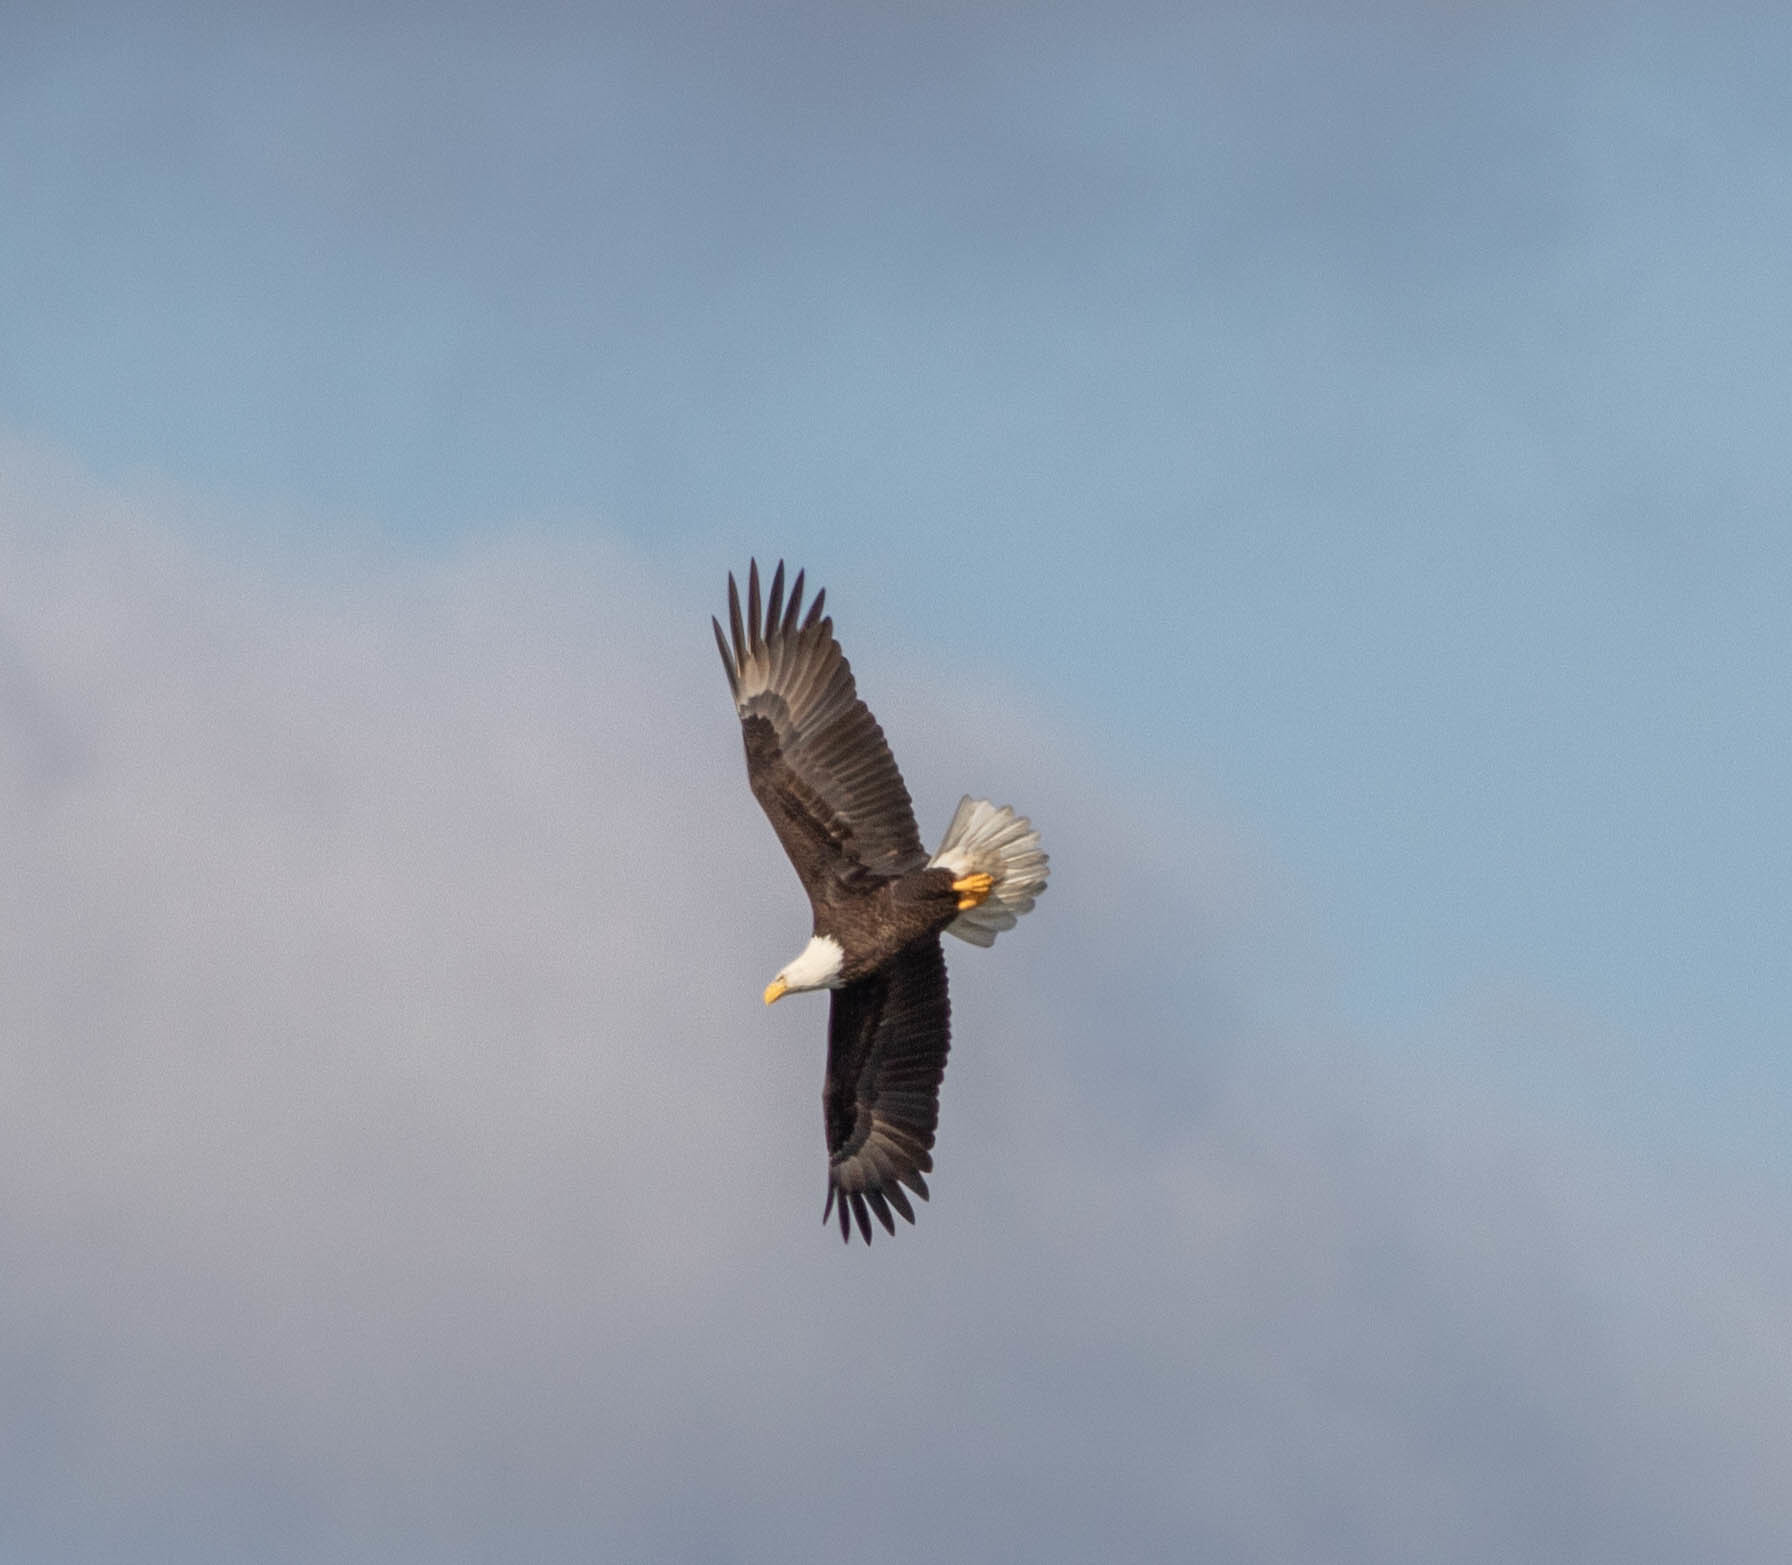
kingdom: Animalia
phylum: Chordata
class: Aves
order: Accipitriformes
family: Accipitridae
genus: Haliaeetus
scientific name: Haliaeetus leucocephalus
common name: Bald eagle
